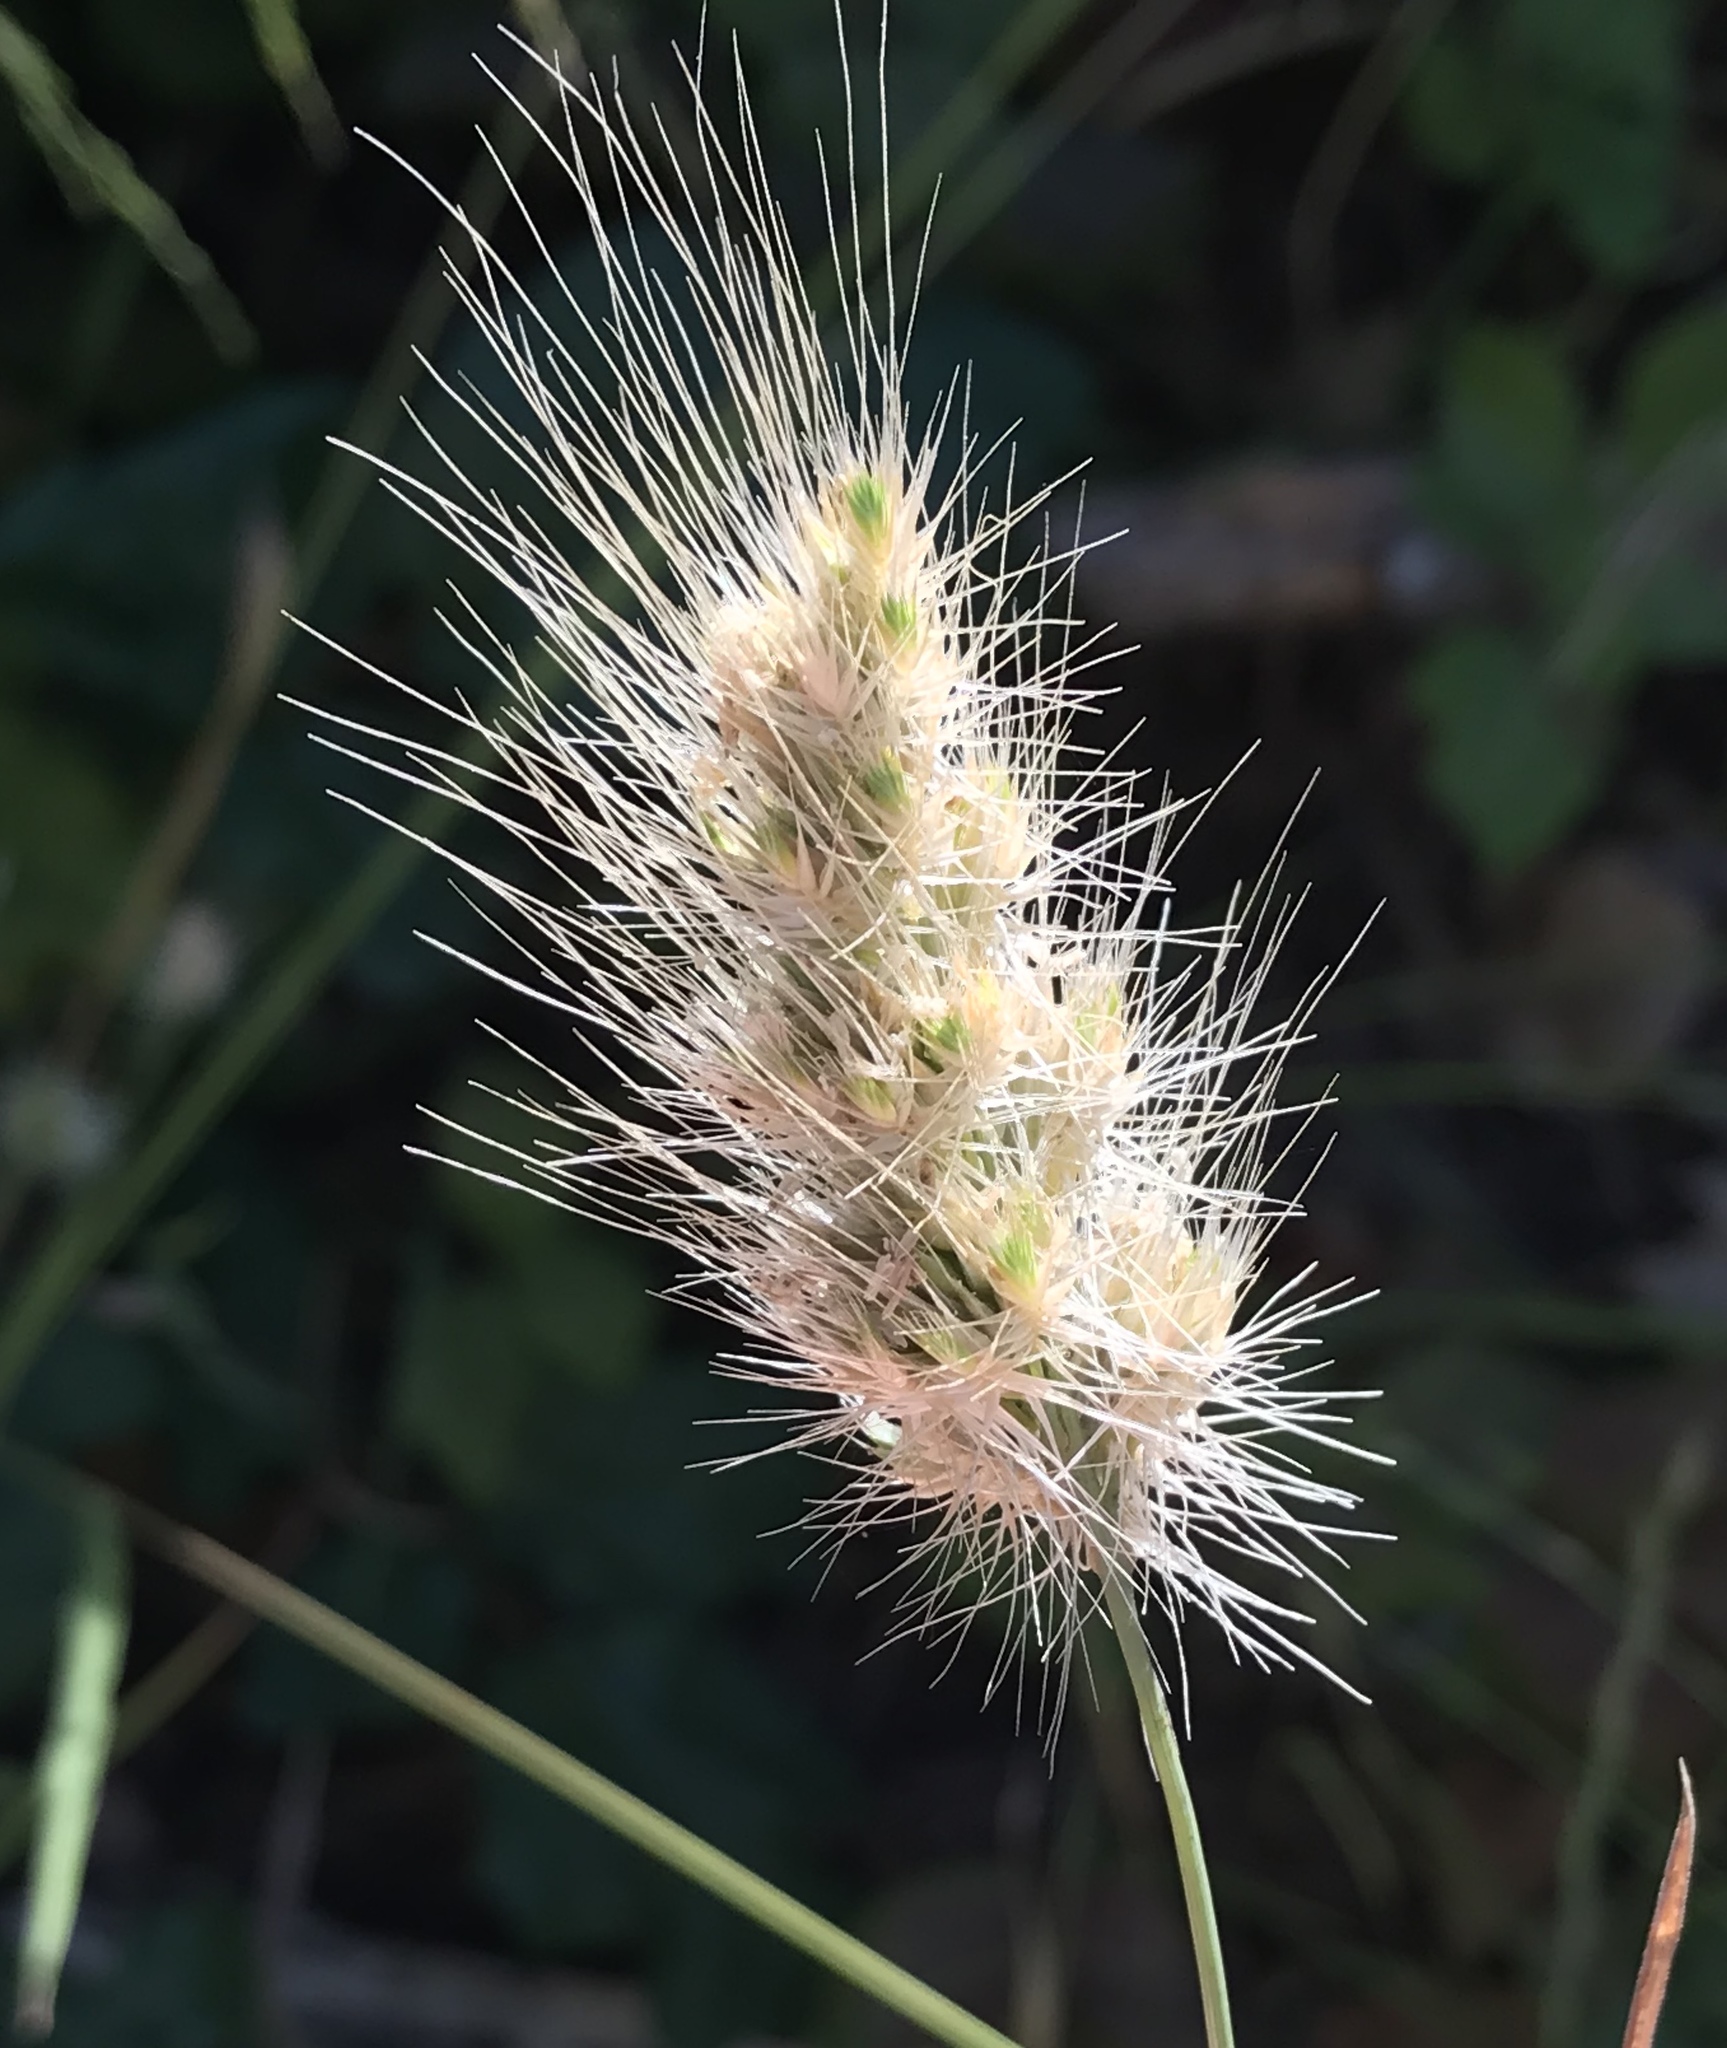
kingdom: Plantae
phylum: Tracheophyta
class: Liliopsida
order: Poales
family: Poaceae
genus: Cynosurus
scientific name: Cynosurus echinatus
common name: Rough dog's-tail
